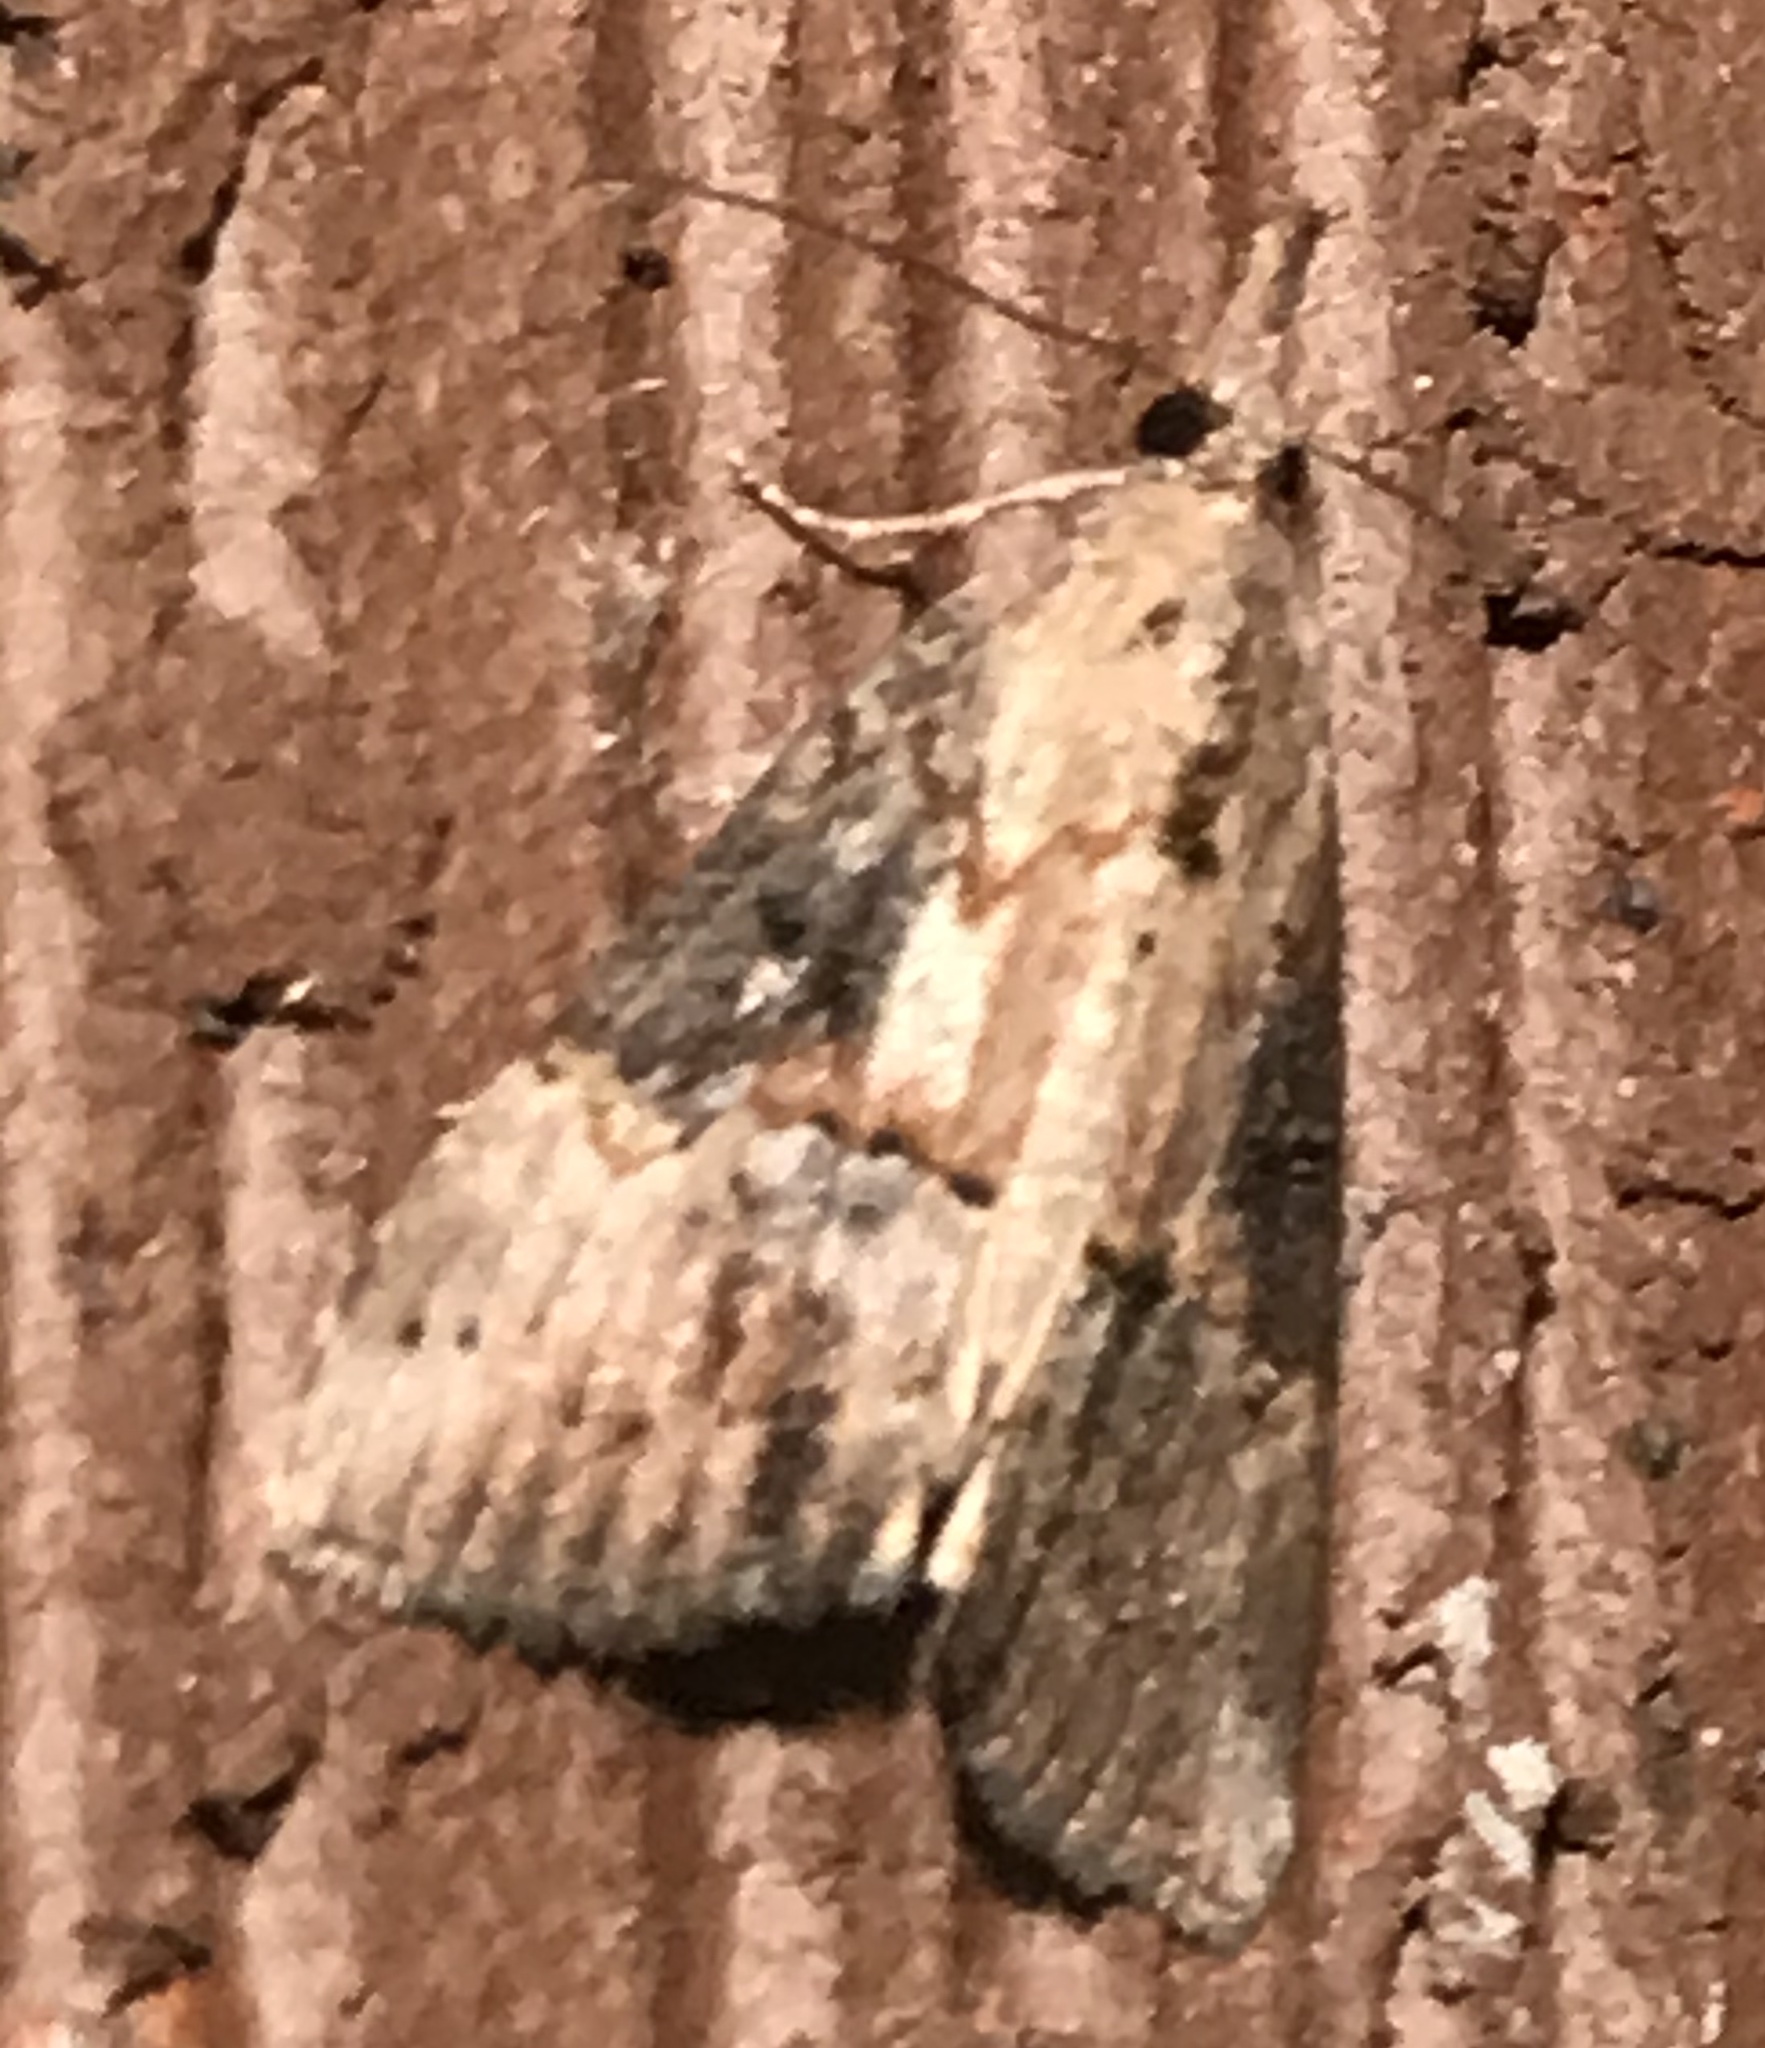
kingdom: Animalia
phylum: Arthropoda
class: Insecta
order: Lepidoptera
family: Erebidae
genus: Hypena
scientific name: Hypena scabra
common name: Green cloverworm
